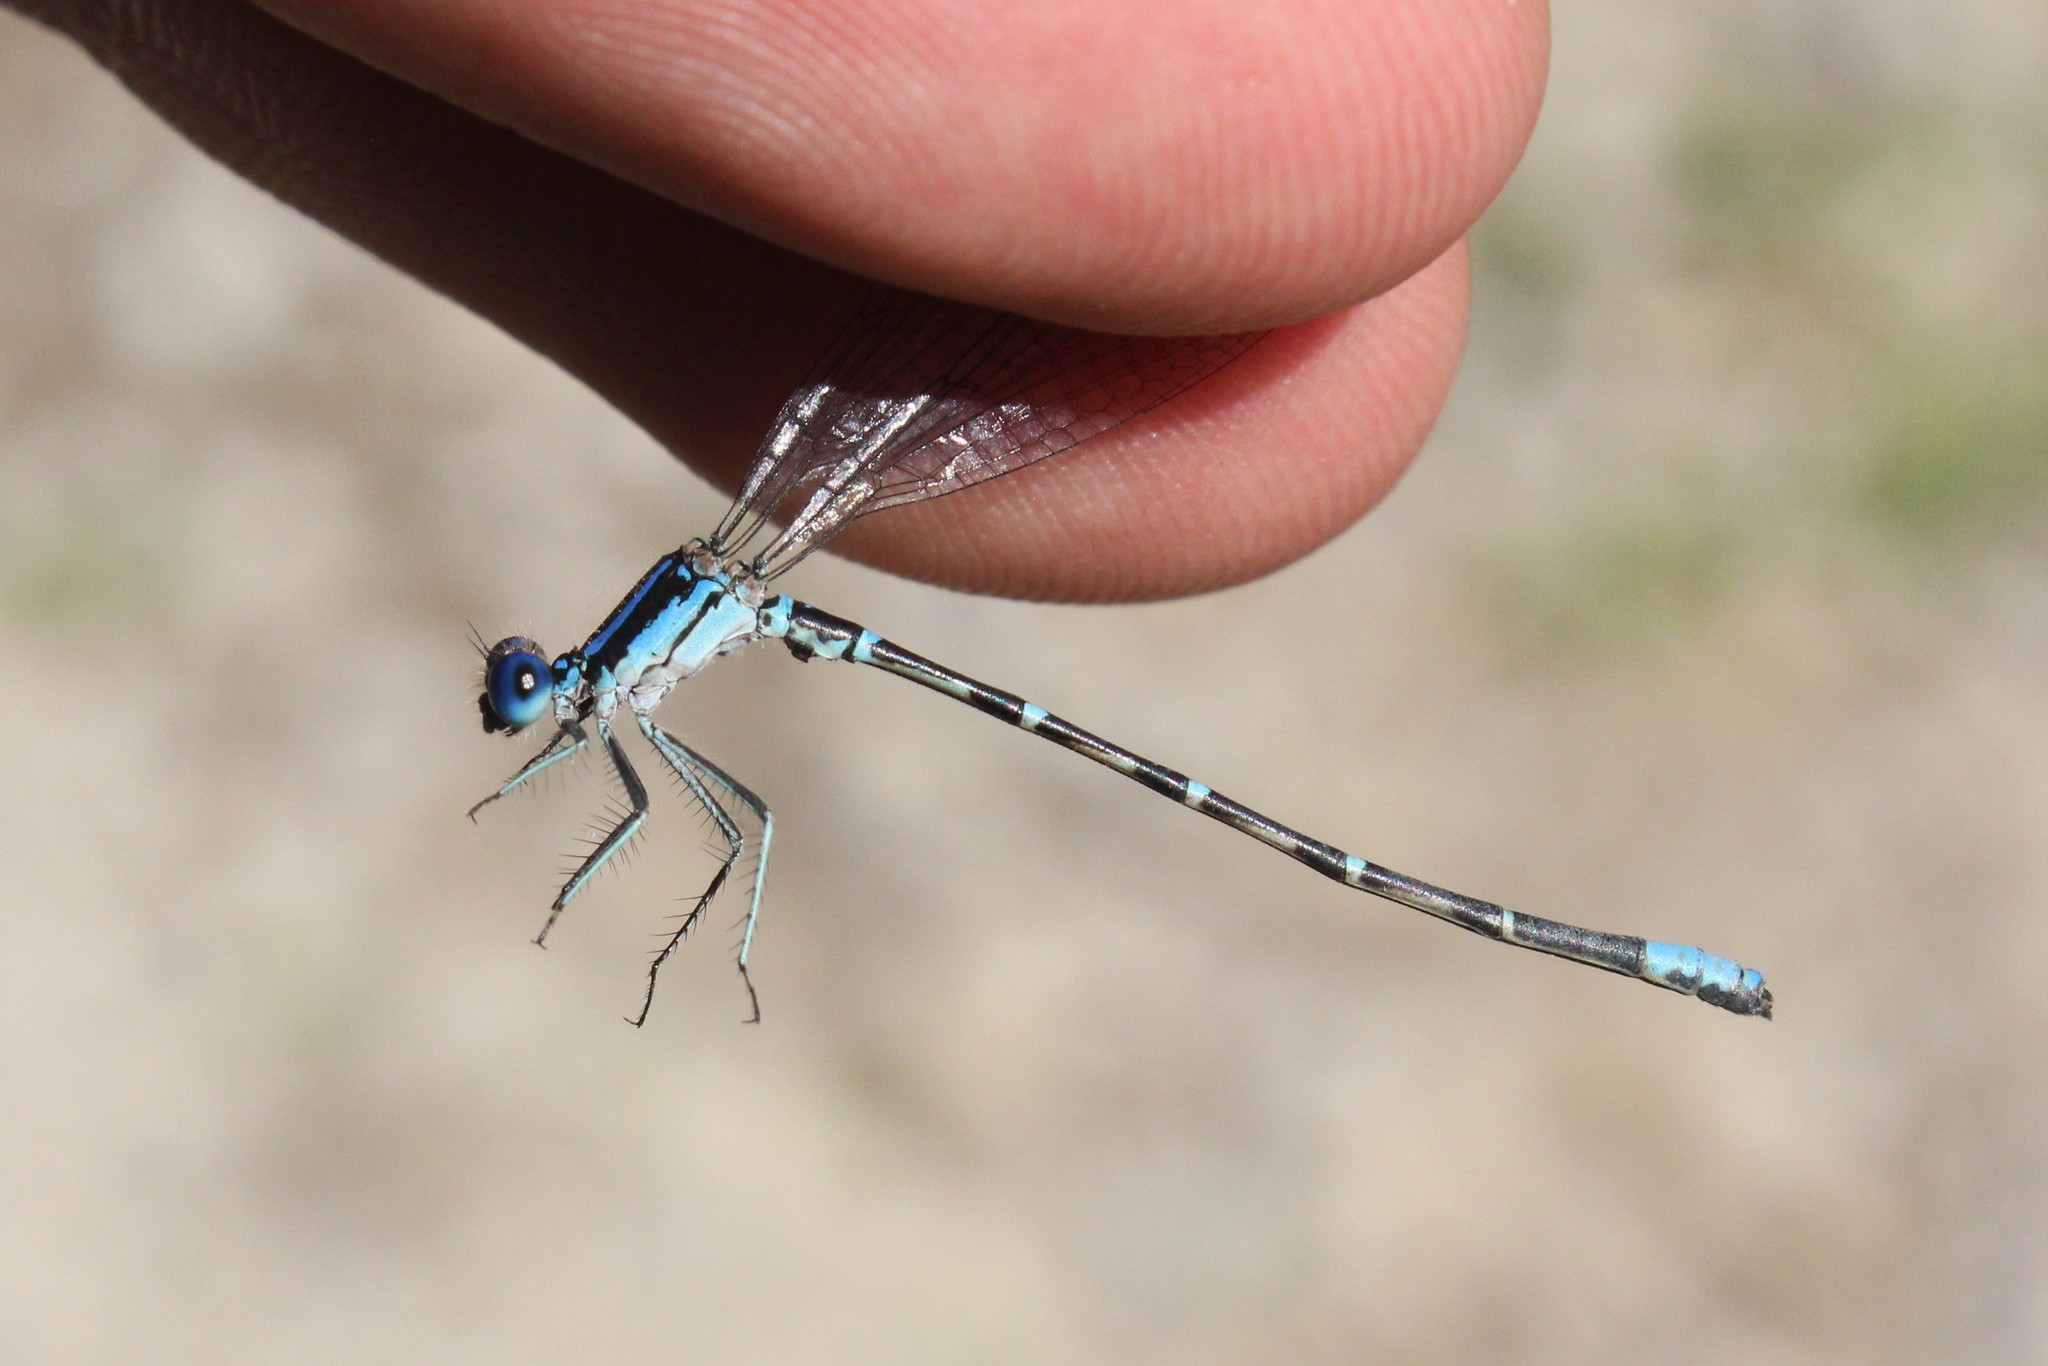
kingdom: Animalia
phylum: Arthropoda
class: Insecta
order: Odonata
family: Coenagrionidae
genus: Argia
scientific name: Argia sedula
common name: Blue-ringed dancer
